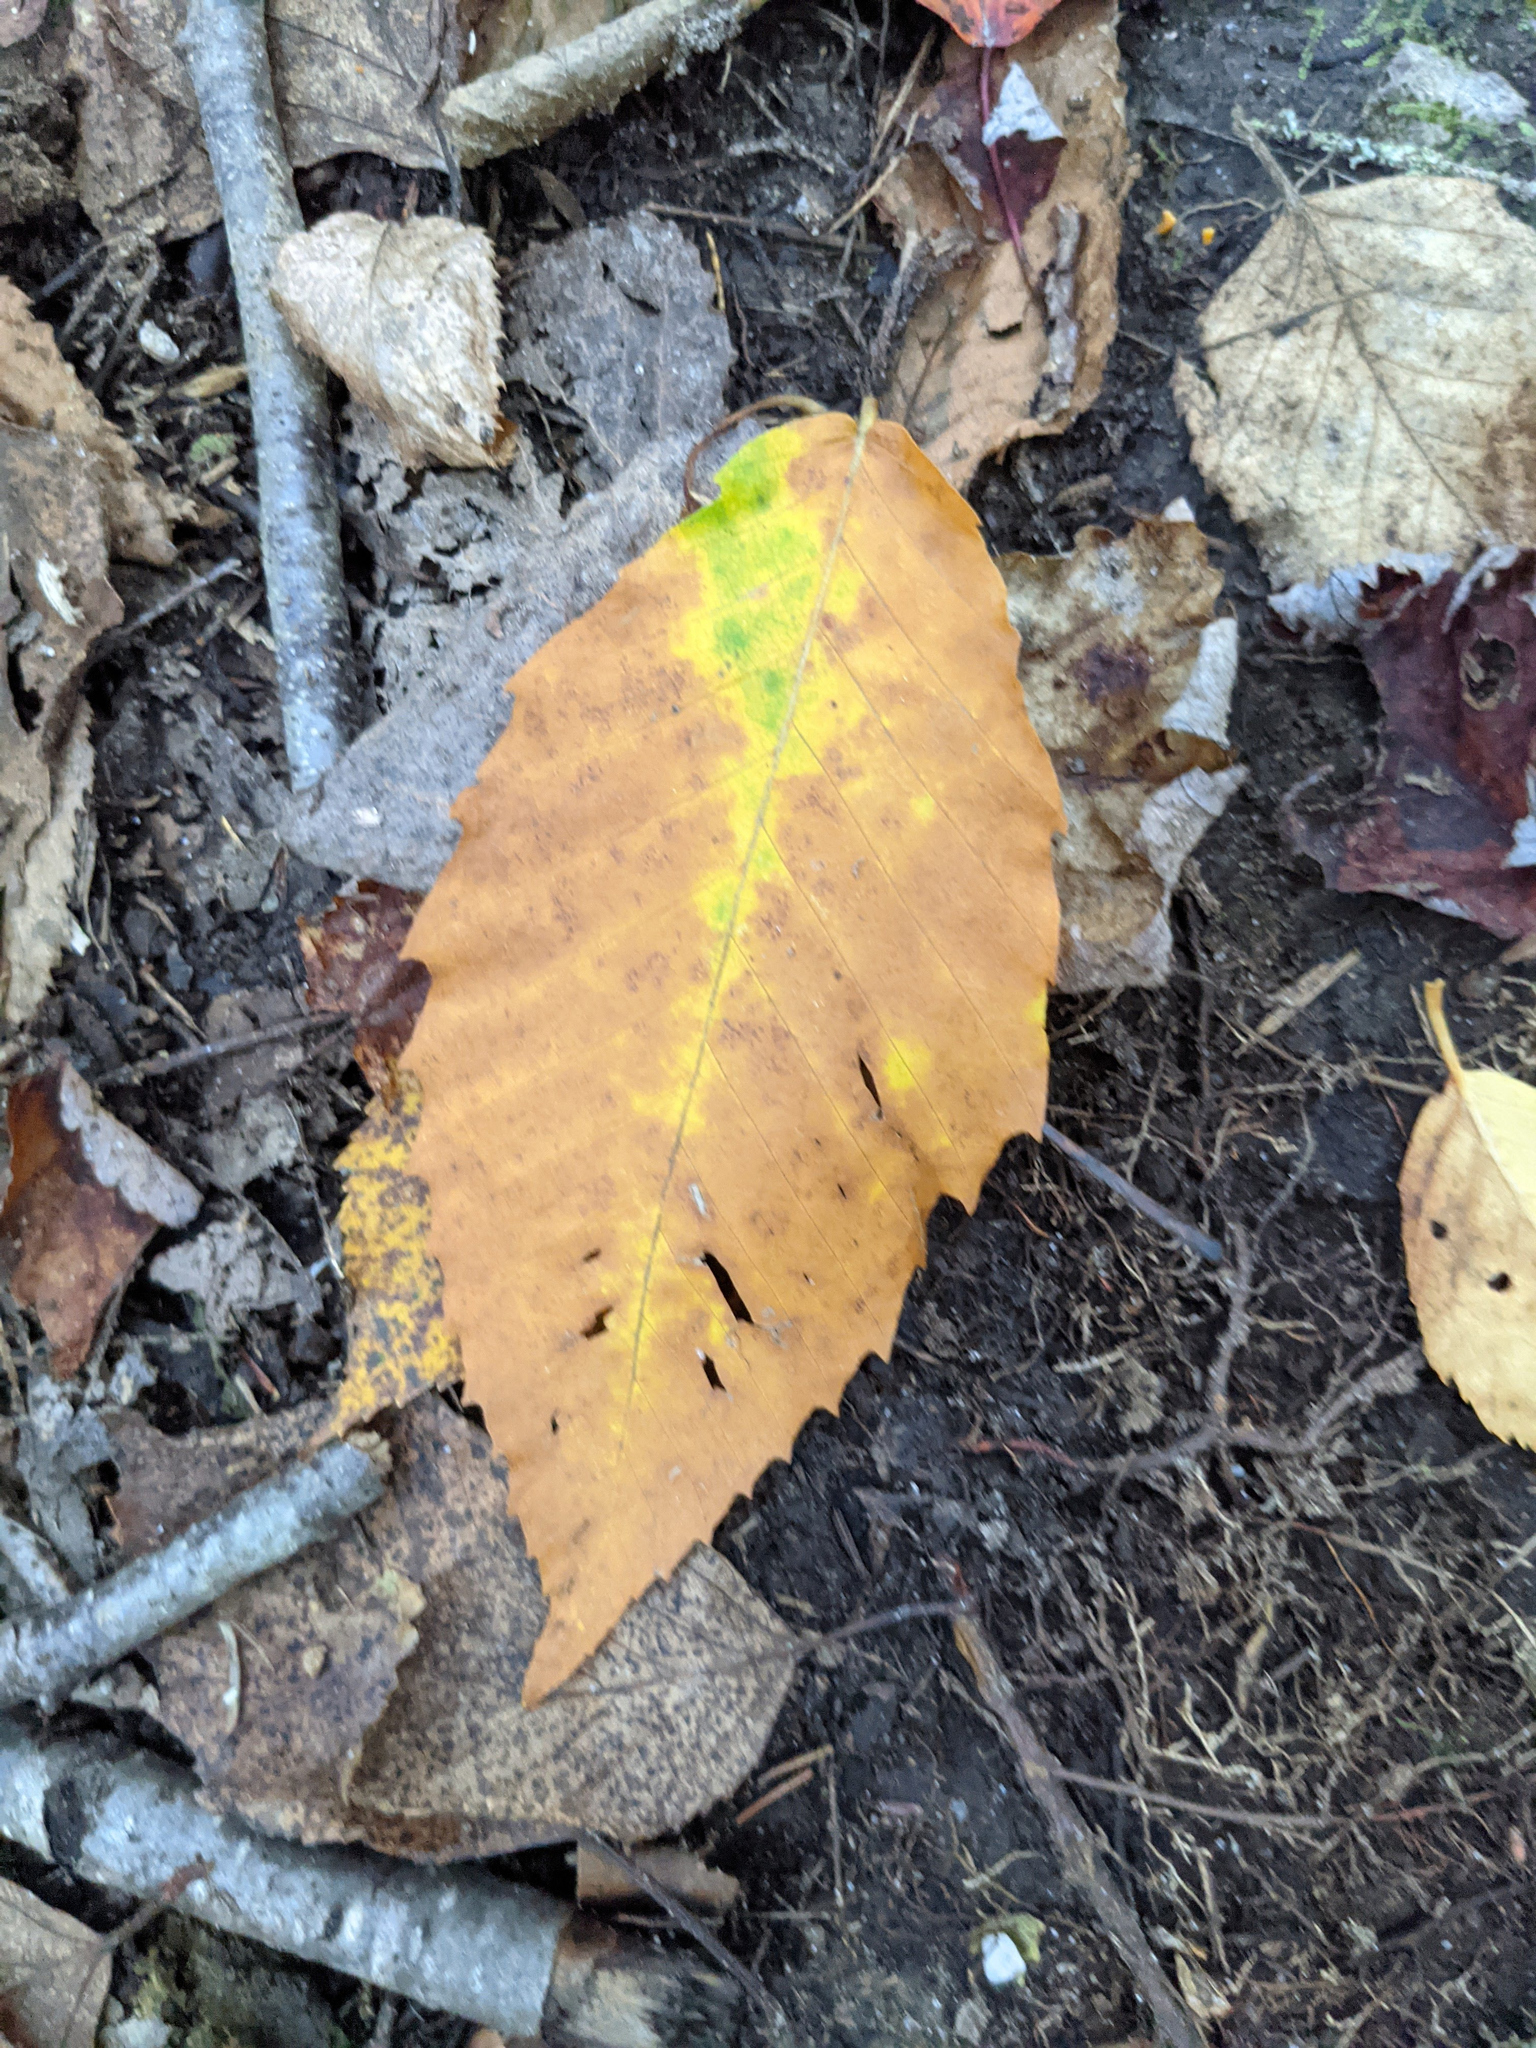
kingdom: Plantae
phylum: Tracheophyta
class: Magnoliopsida
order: Fagales
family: Fagaceae
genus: Fagus
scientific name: Fagus grandifolia
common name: American beech
